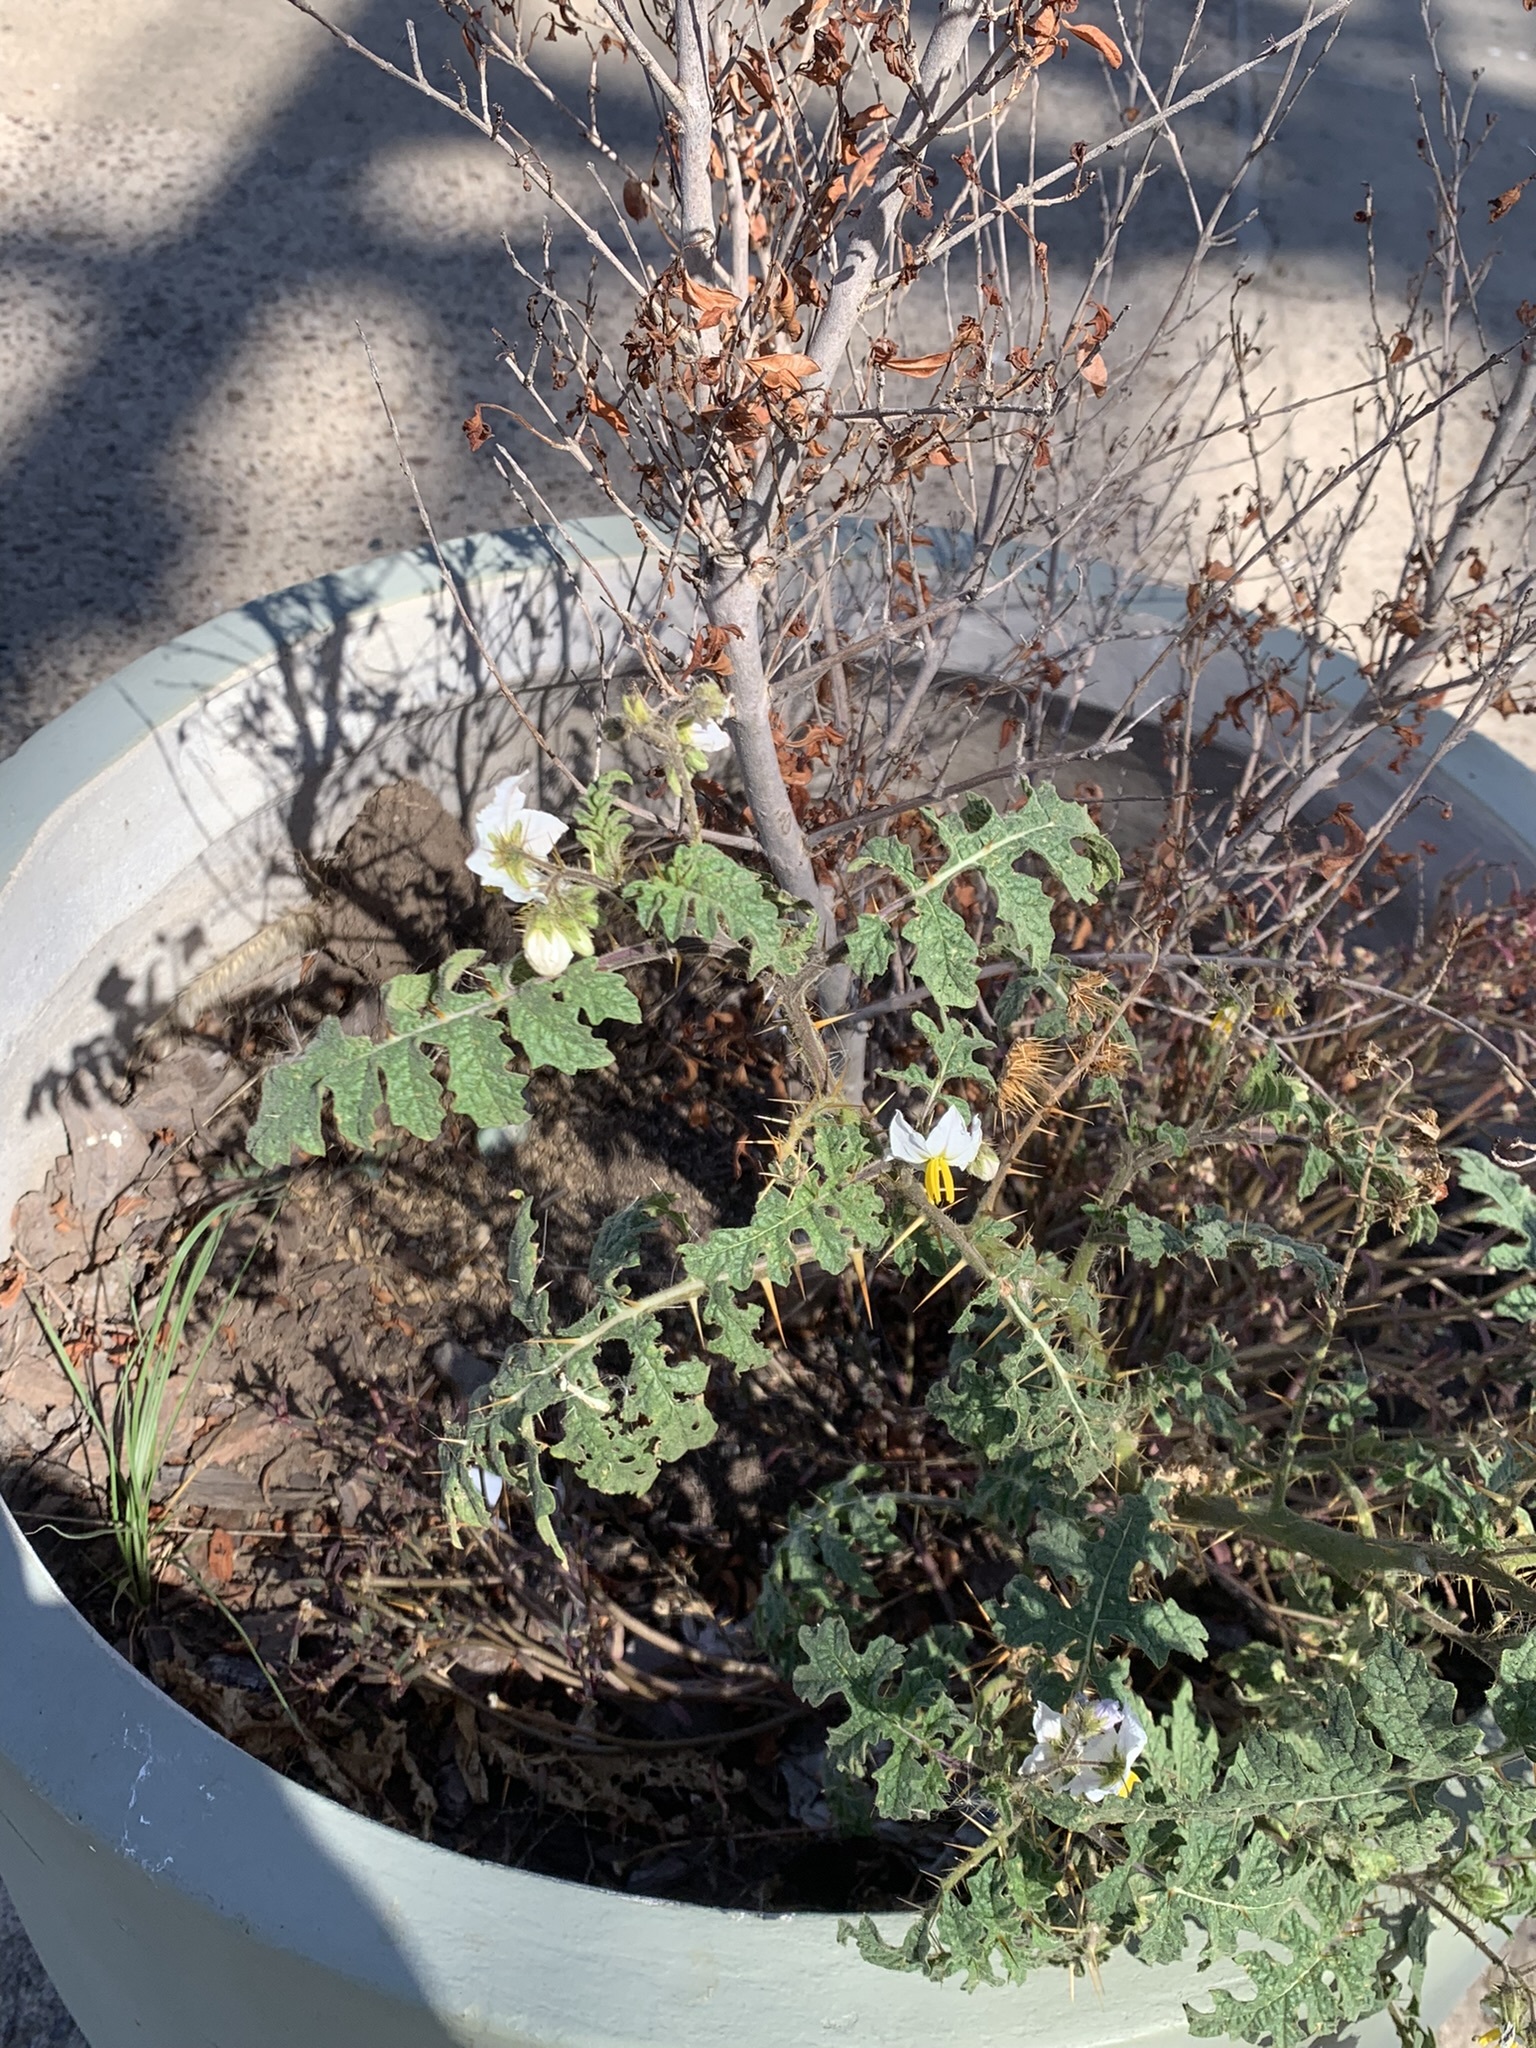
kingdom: Plantae
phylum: Tracheophyta
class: Magnoliopsida
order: Solanales
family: Solanaceae
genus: Solanum
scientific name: Solanum sisymbriifolium
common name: Red buffalo-bur
